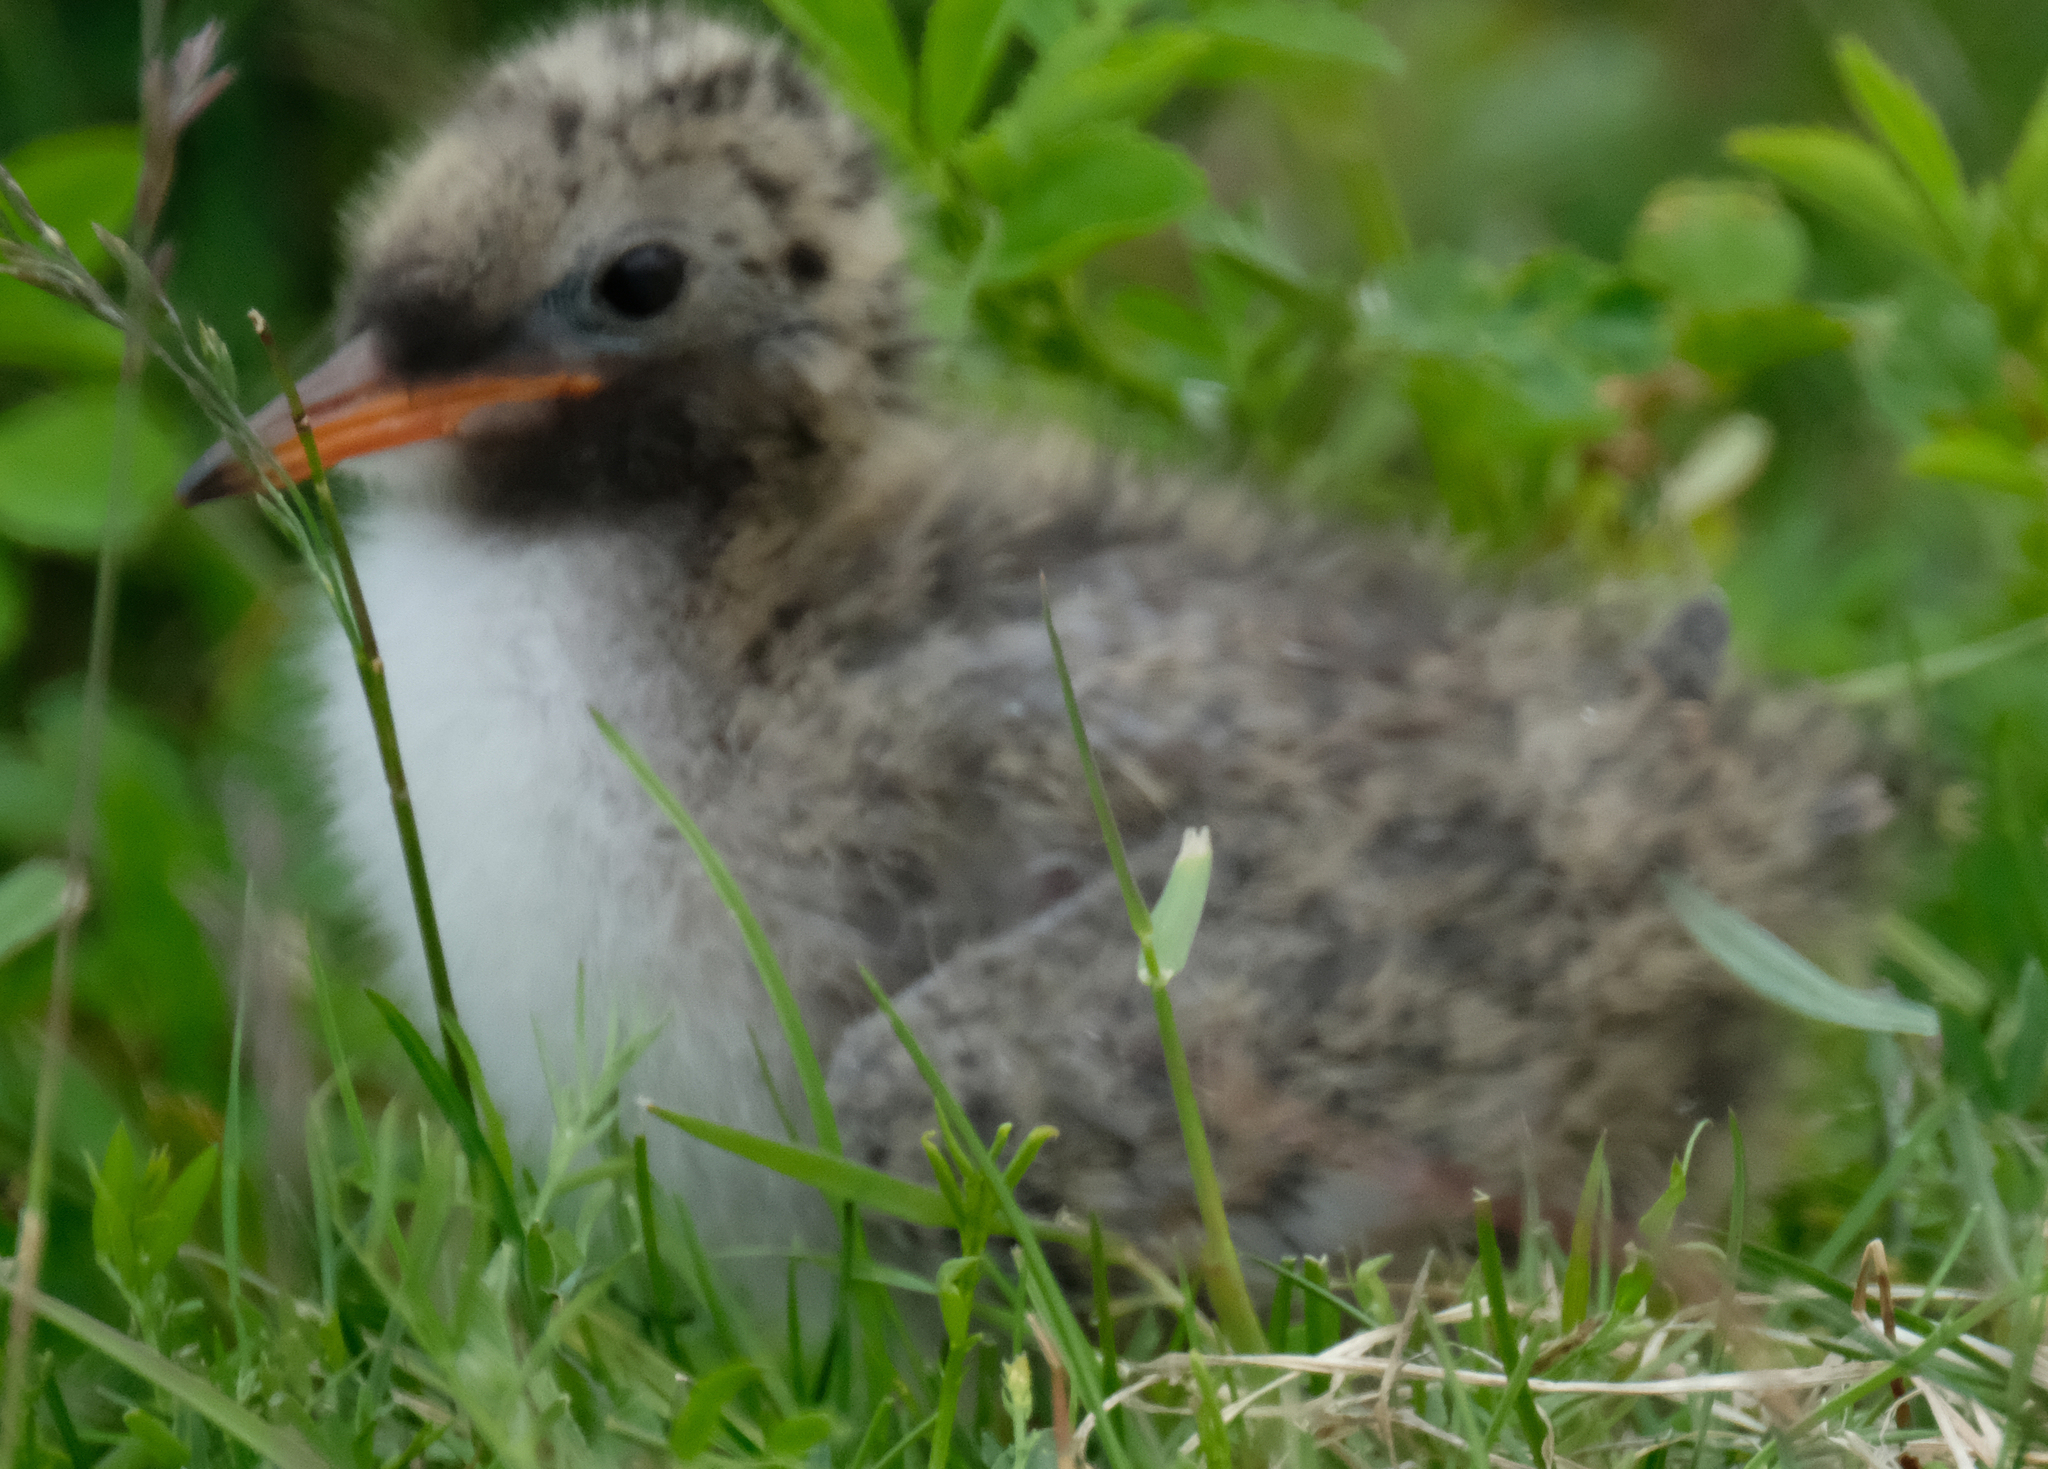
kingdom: Animalia
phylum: Chordata
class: Aves
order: Charadriiformes
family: Laridae
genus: Sterna
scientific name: Sterna paradisaea
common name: Arctic tern
